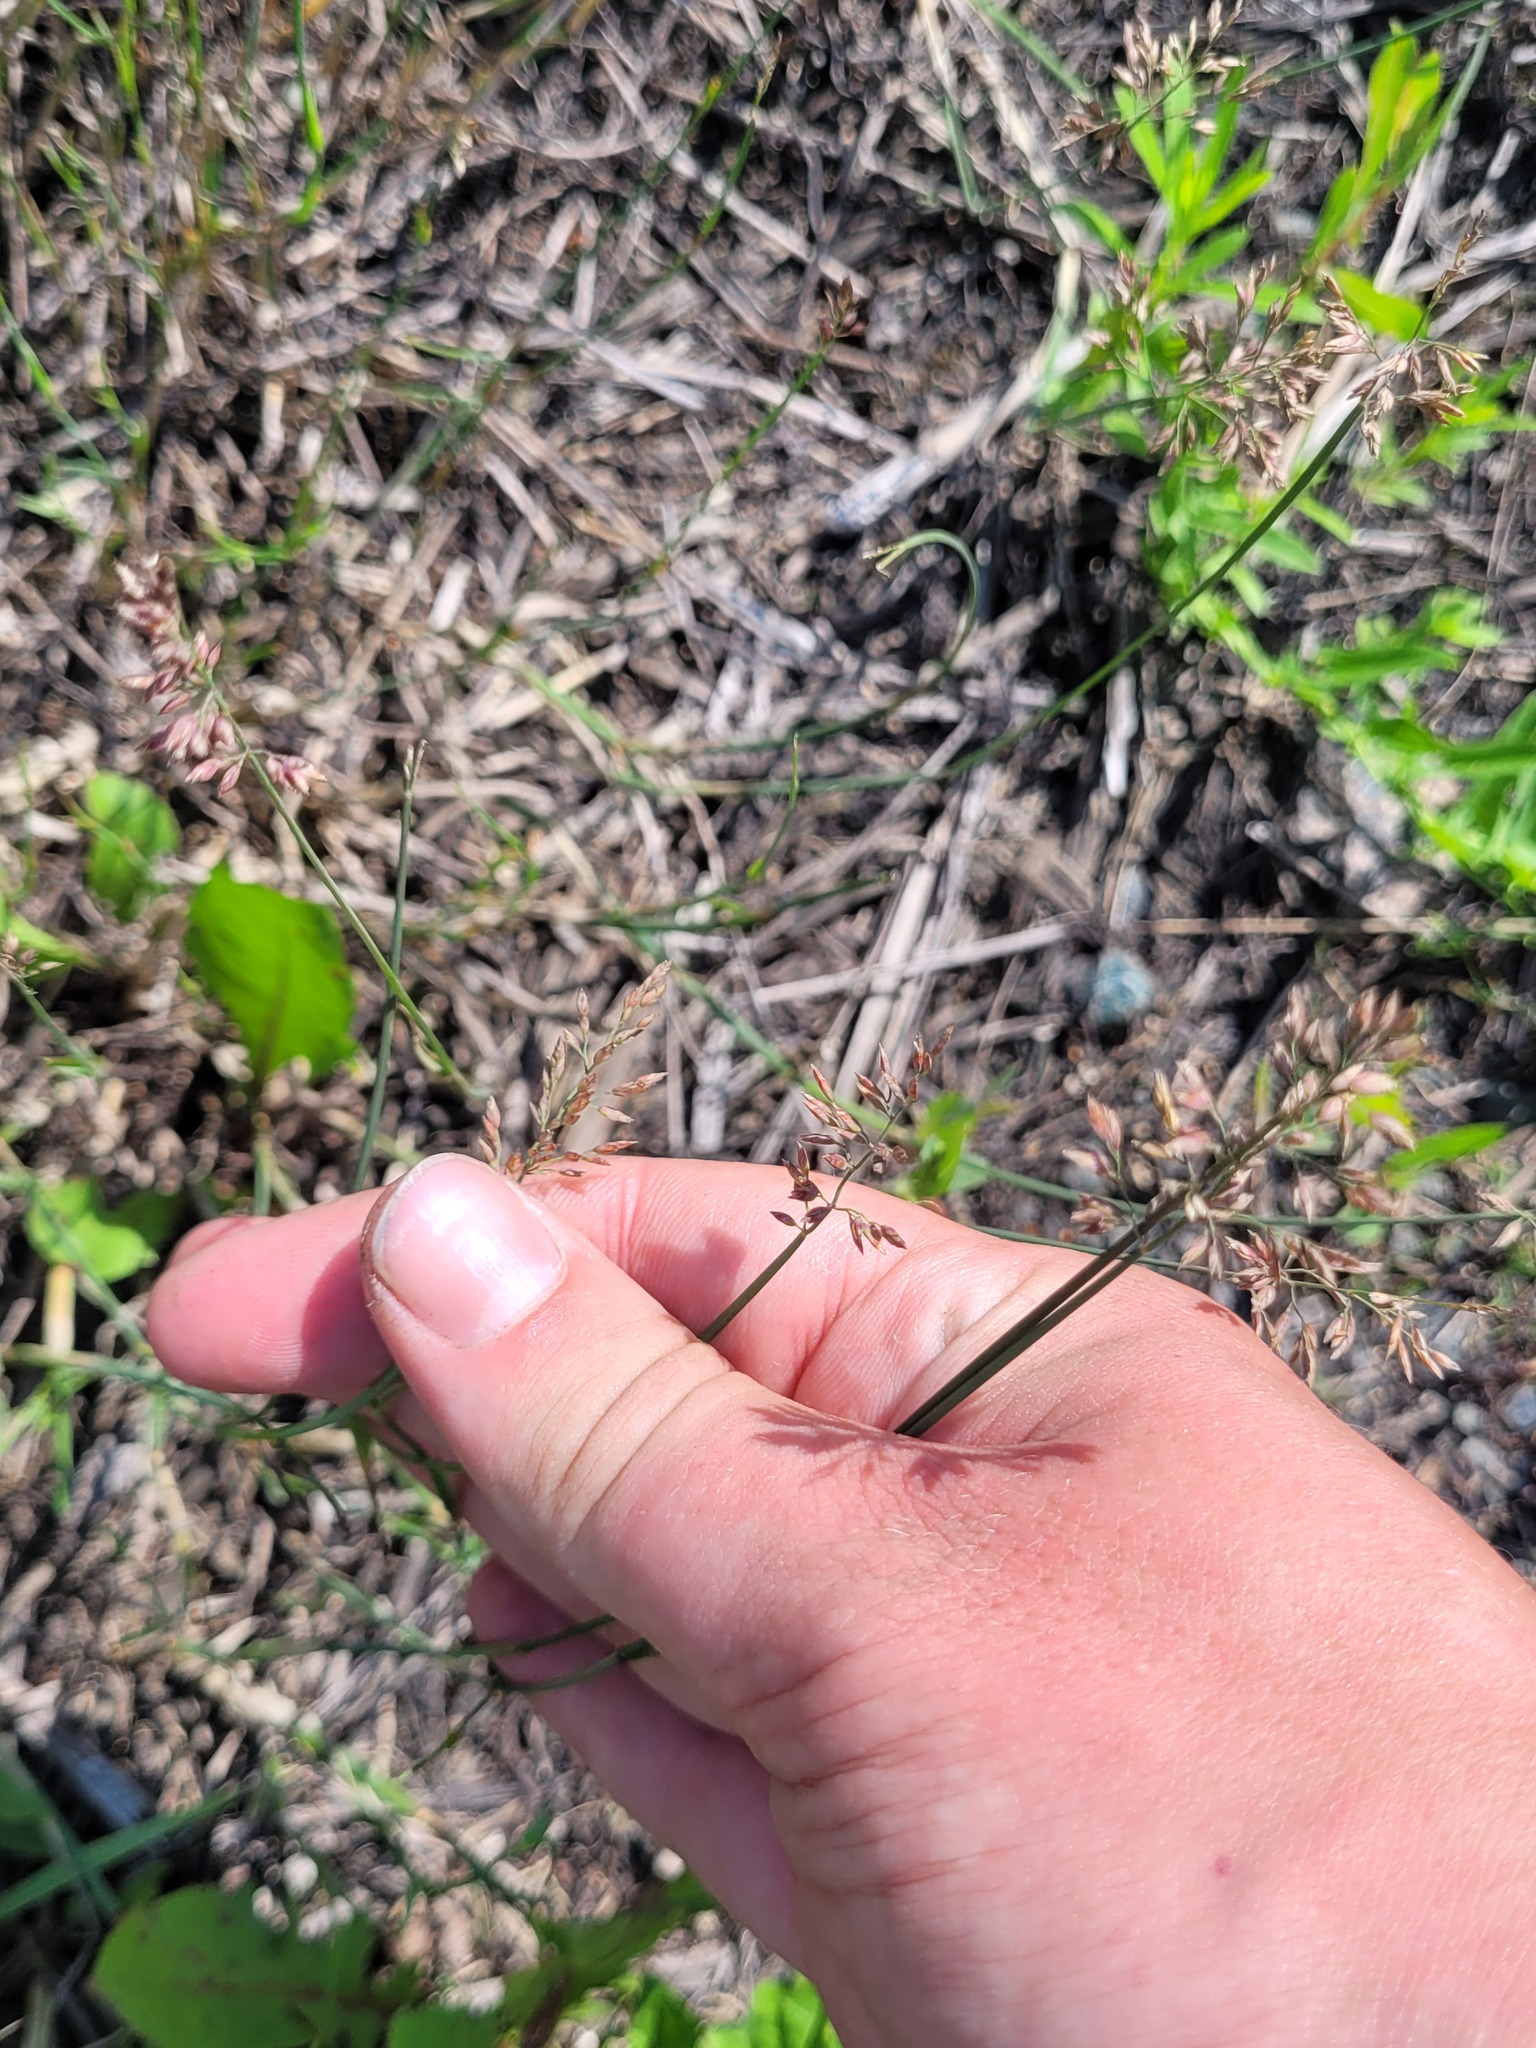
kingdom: Plantae
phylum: Tracheophyta
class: Liliopsida
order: Poales
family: Poaceae
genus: Poa
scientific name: Poa compressa
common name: Canada bluegrass
